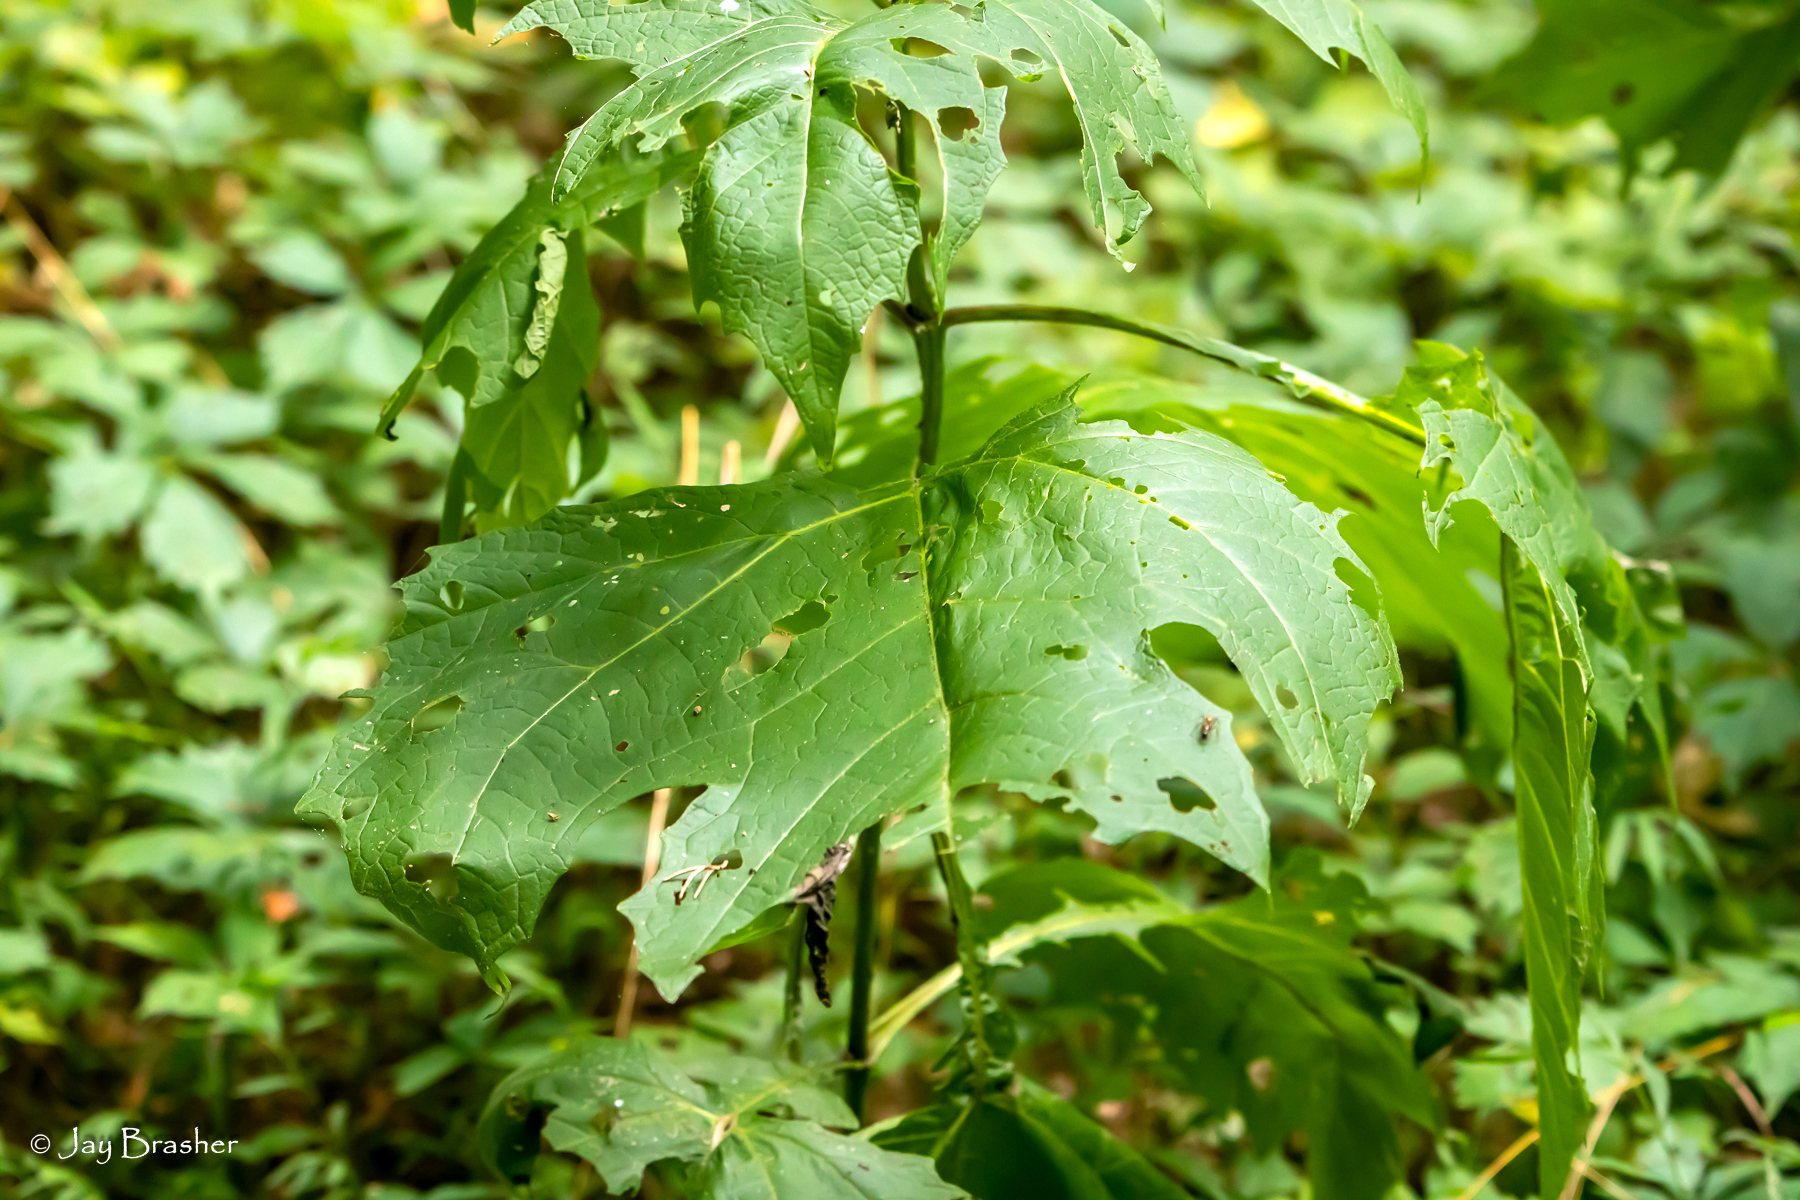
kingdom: Plantae
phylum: Tracheophyta
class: Magnoliopsida
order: Asterales
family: Asteraceae
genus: Smallanthus
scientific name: Smallanthus uvedalia
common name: Bear's-foot
